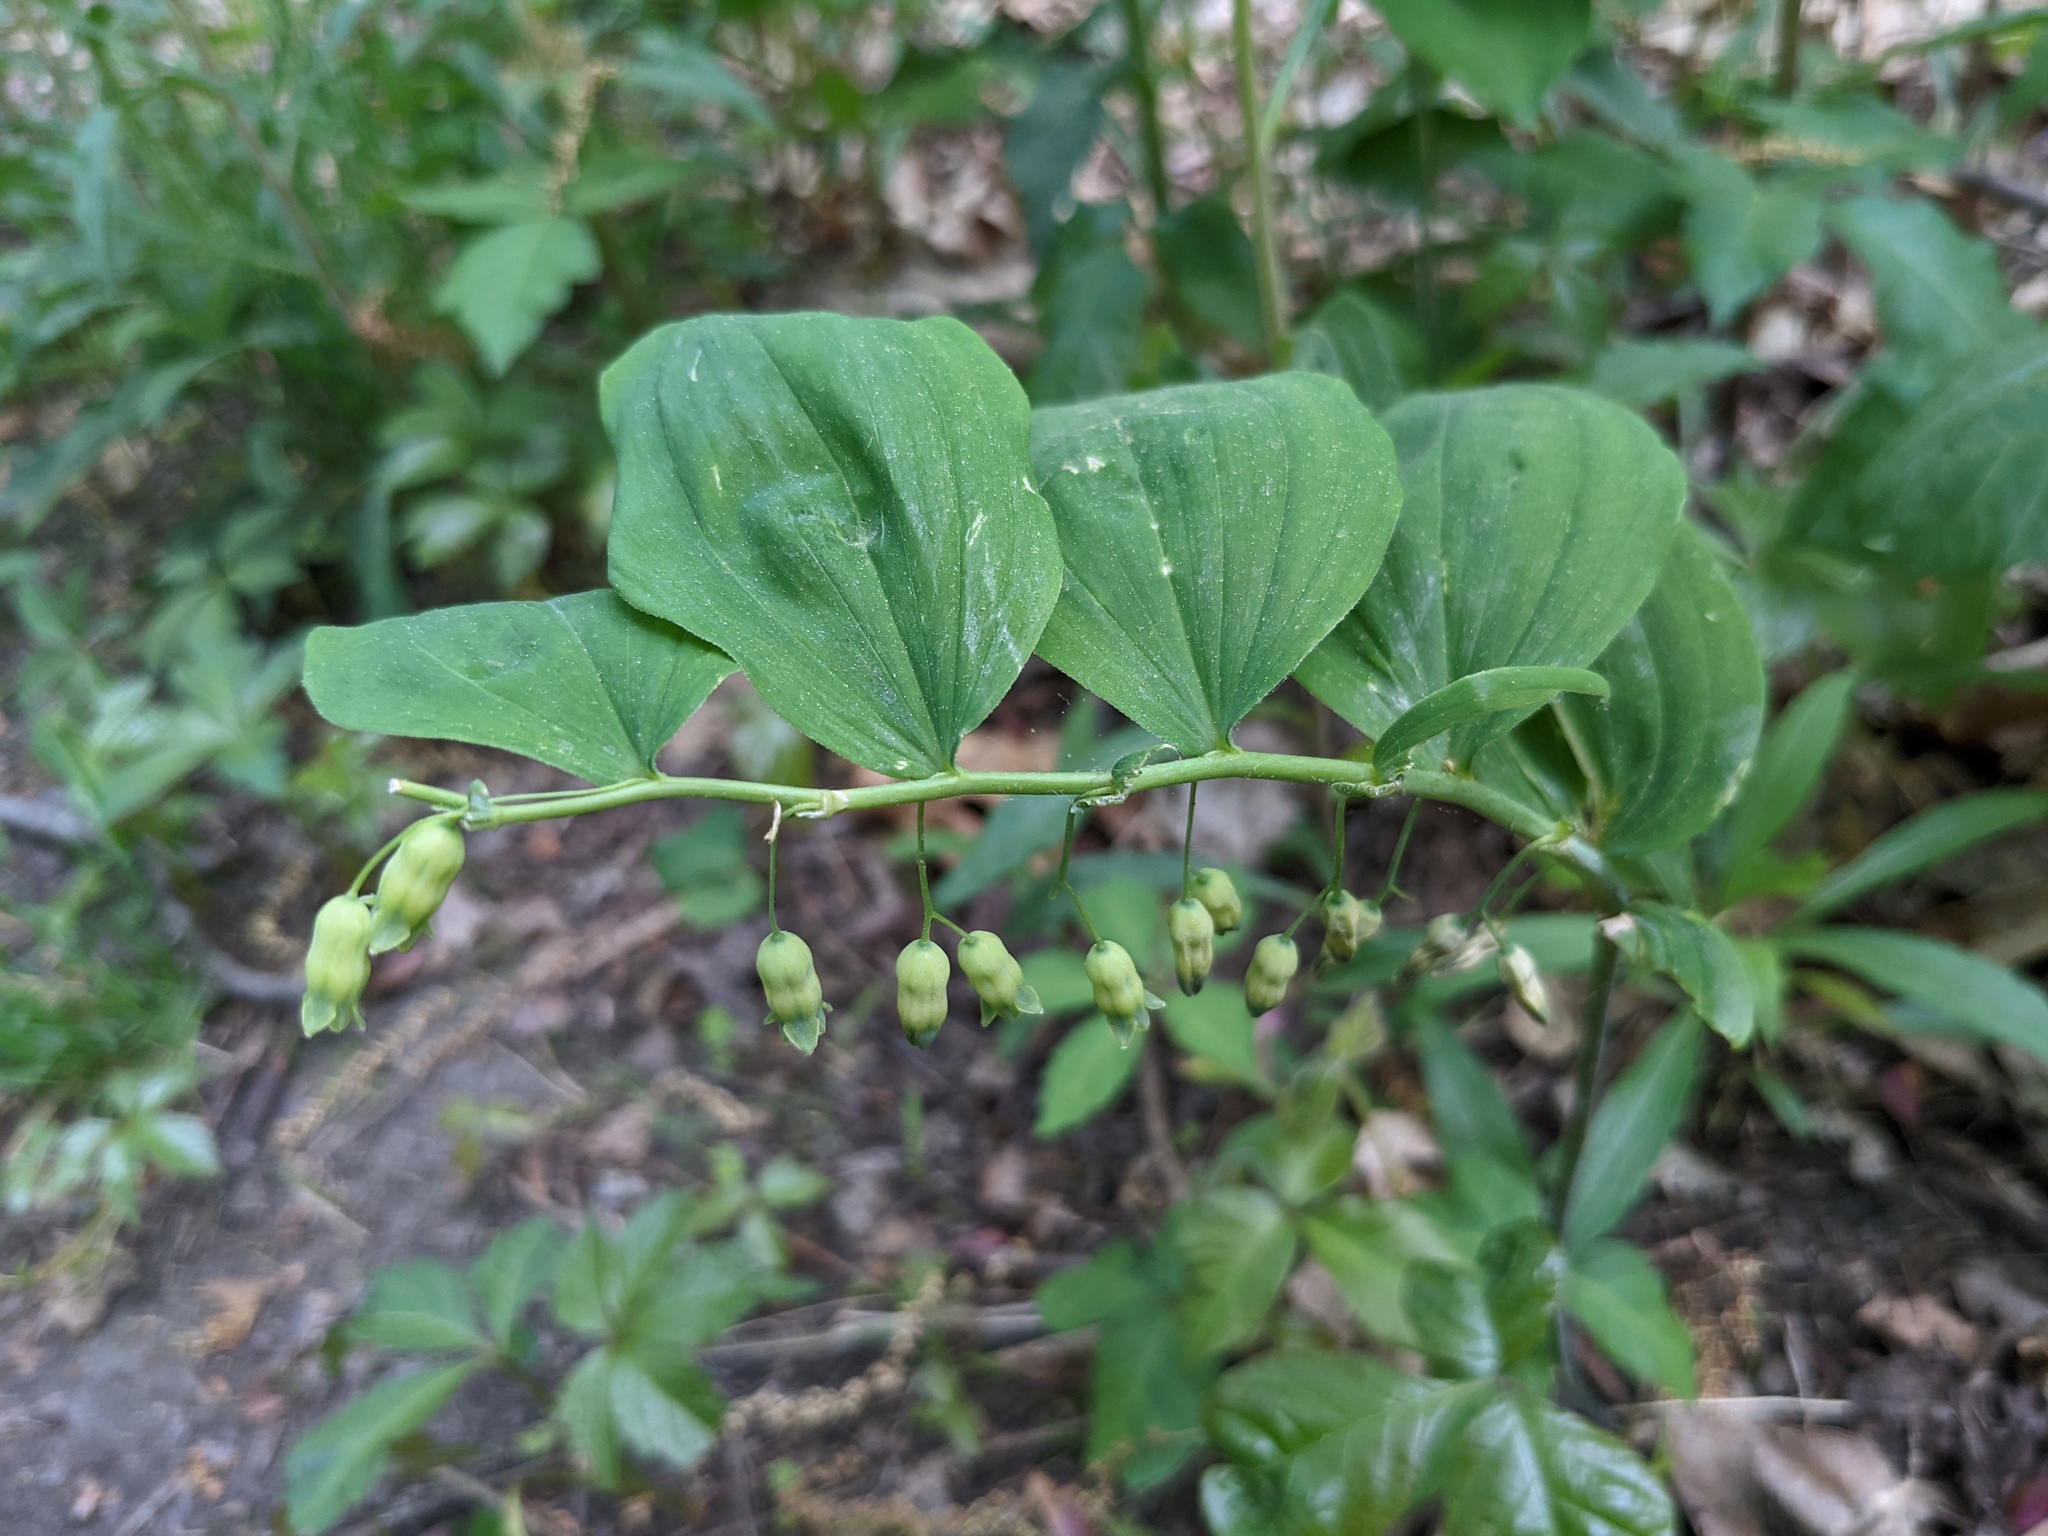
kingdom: Plantae
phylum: Tracheophyta
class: Liliopsida
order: Asparagales
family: Asparagaceae
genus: Polygonatum
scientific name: Polygonatum pubescens
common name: Downy solomon's seal
